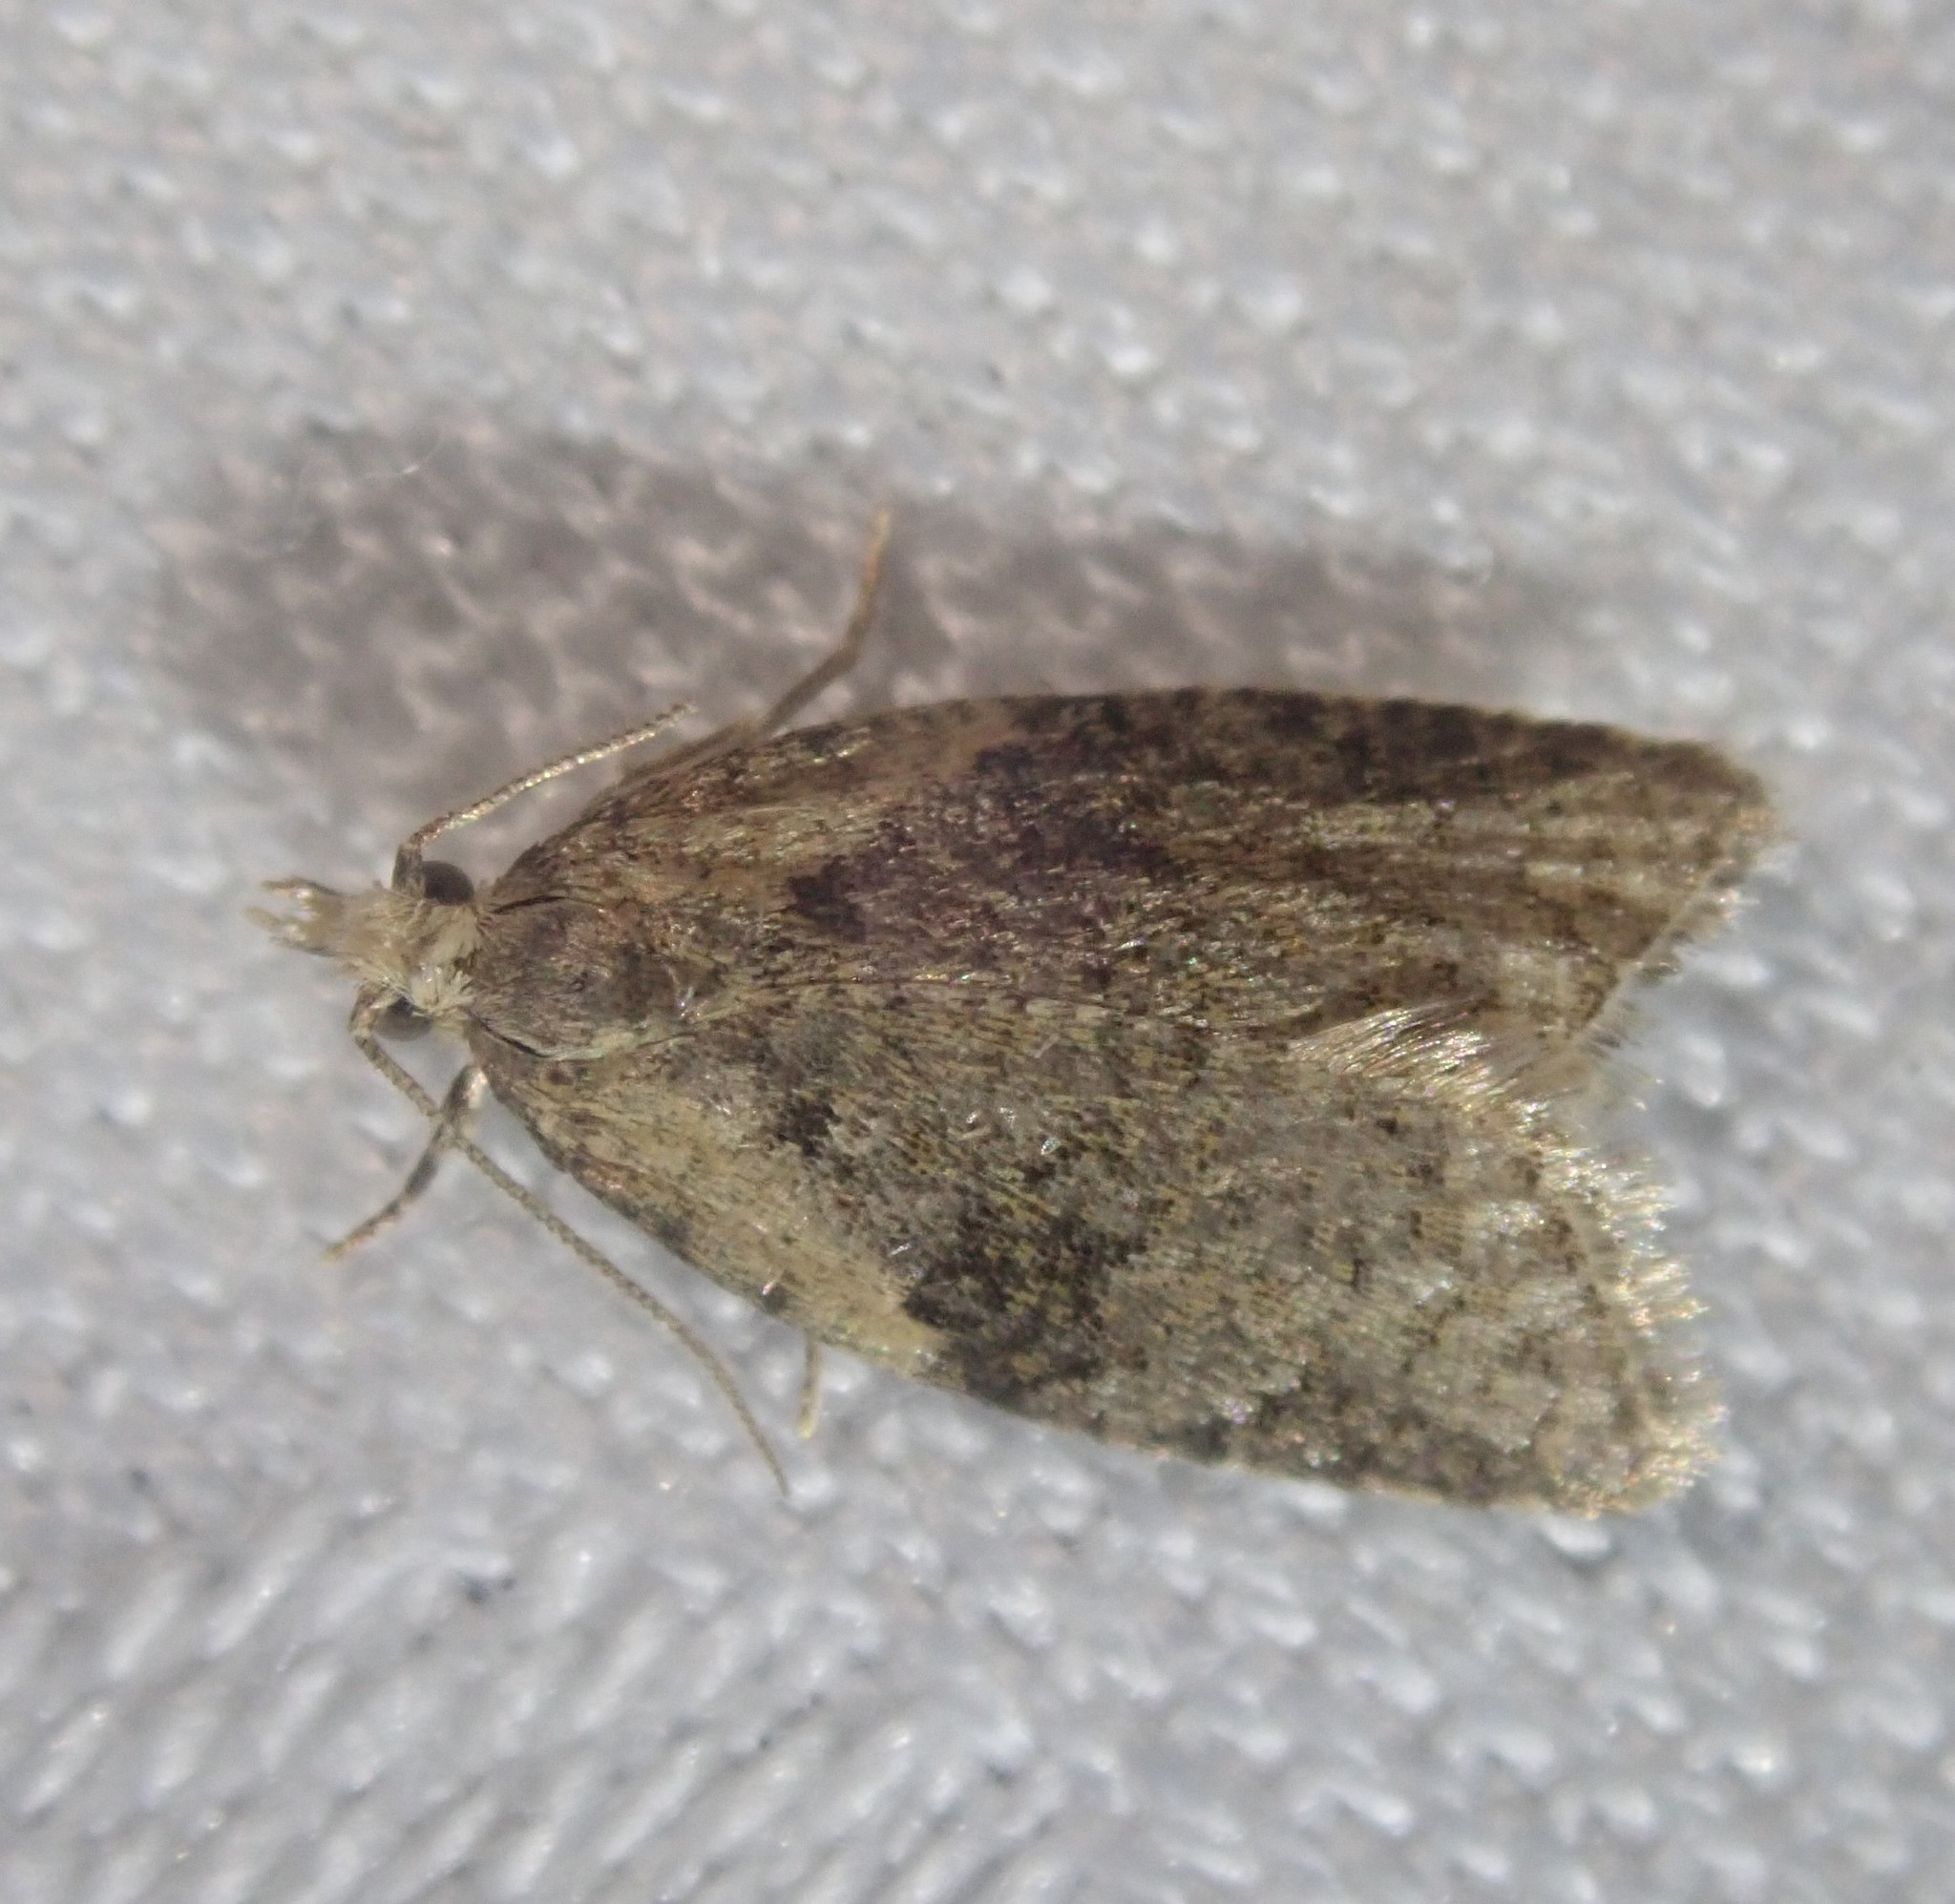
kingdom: Animalia
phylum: Arthropoda
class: Insecta
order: Lepidoptera
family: Tortricidae
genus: Capua
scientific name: Capua vulgana
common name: Common twist
